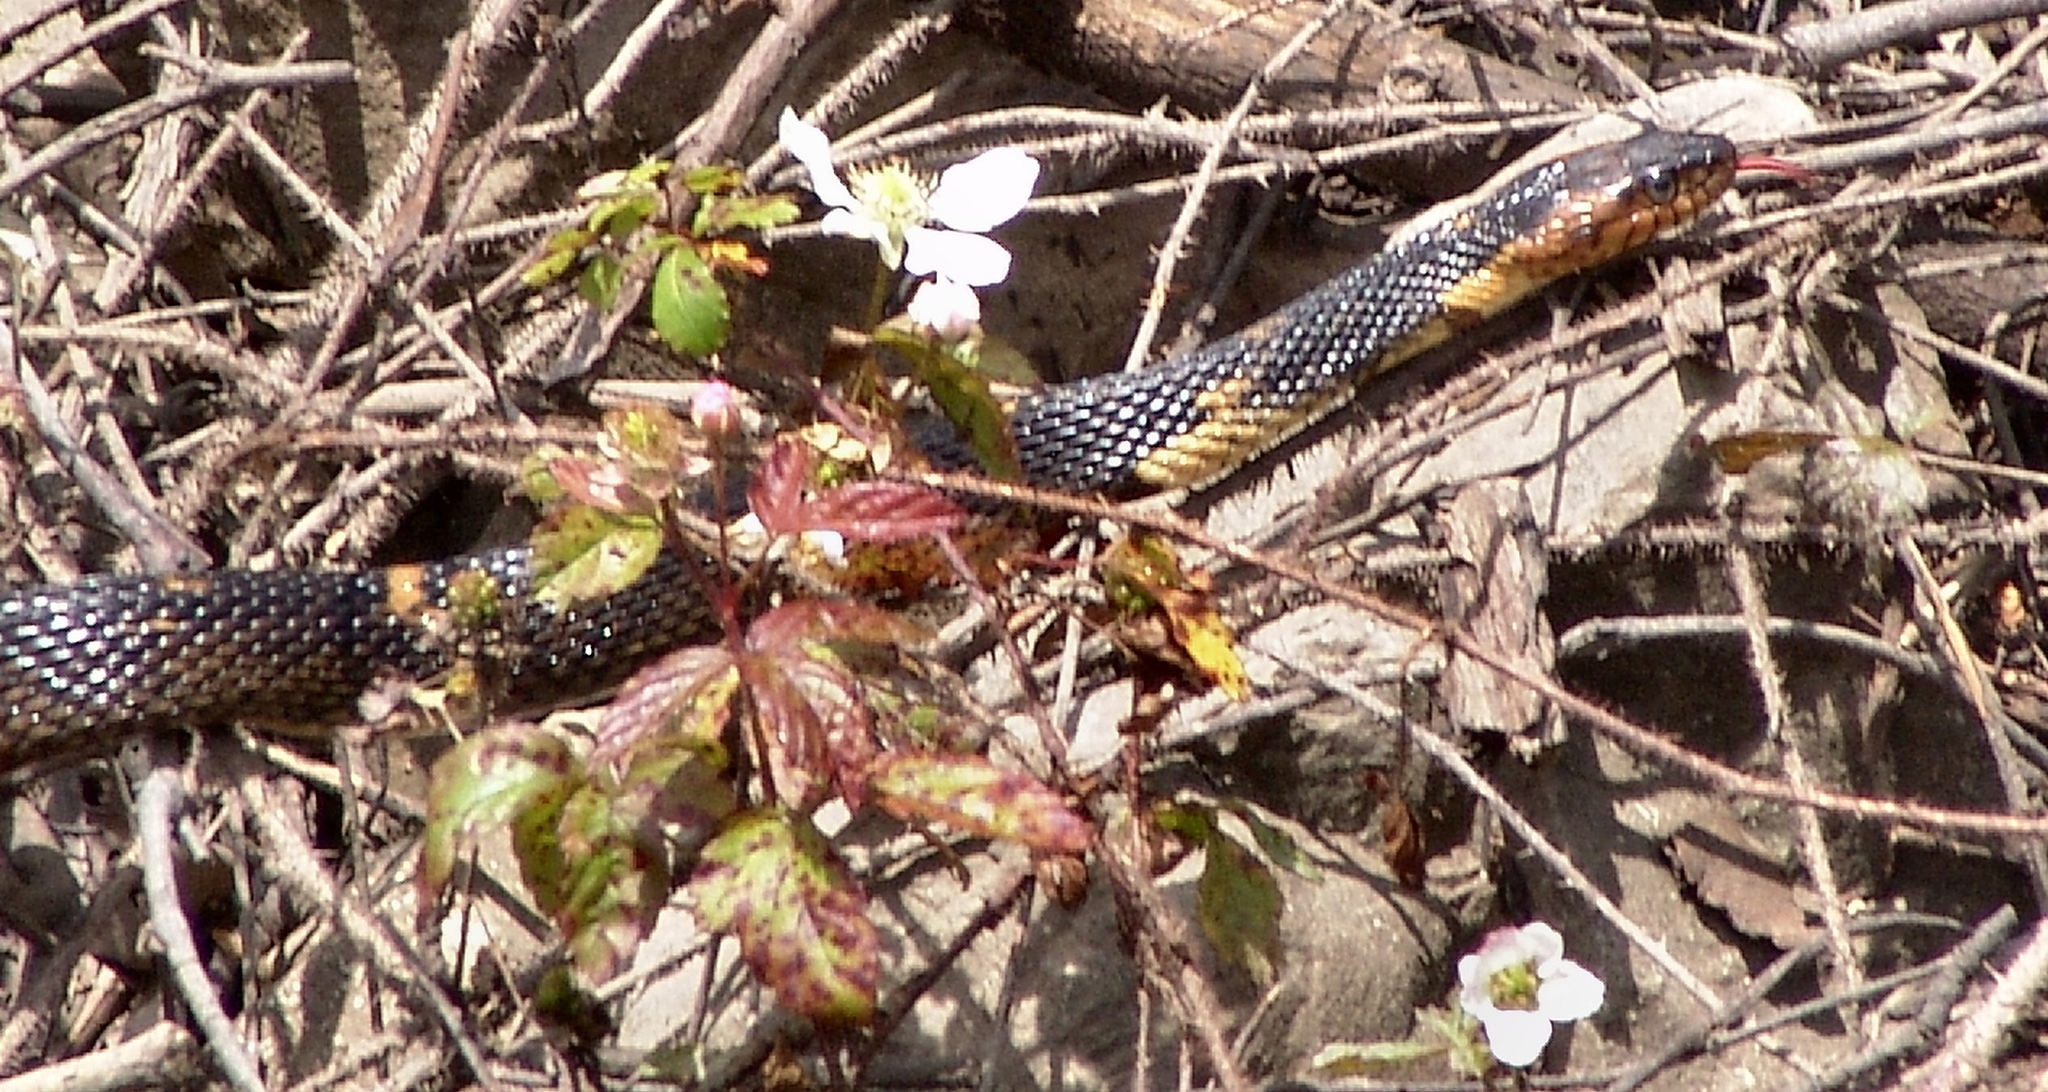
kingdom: Animalia
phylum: Chordata
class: Squamata
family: Colubridae
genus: Nerodia
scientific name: Nerodia fasciata
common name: Southern water snake
